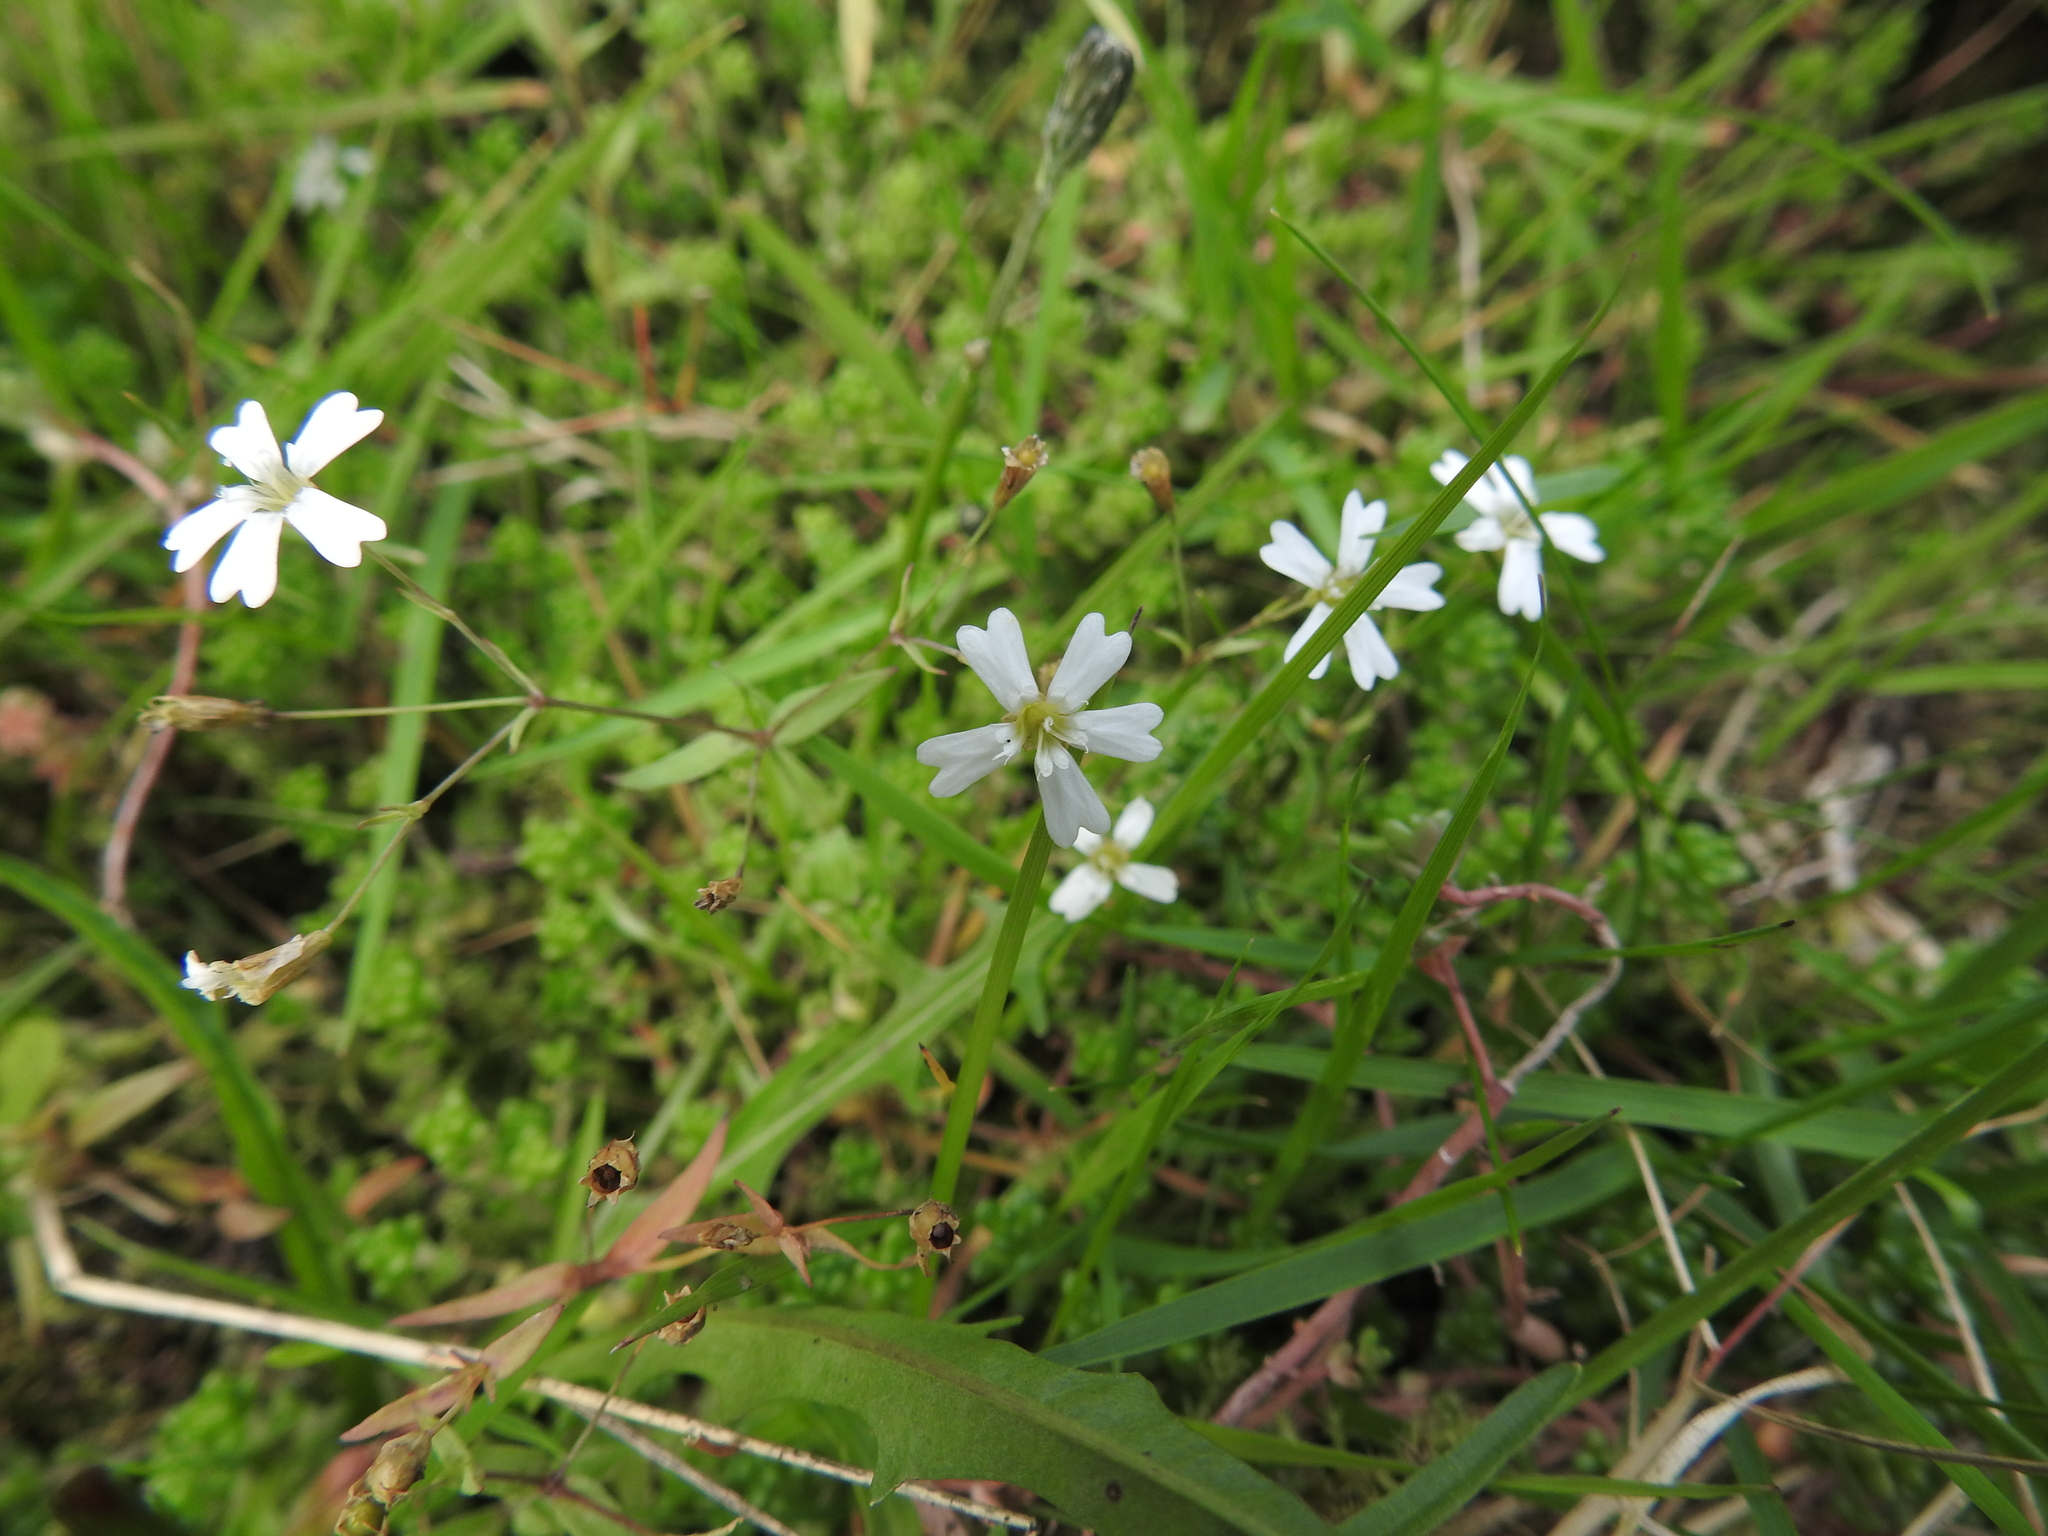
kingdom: Plantae
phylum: Tracheophyta
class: Magnoliopsida
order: Caryophyllales
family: Caryophyllaceae
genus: Atocion
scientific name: Atocion rupestre
